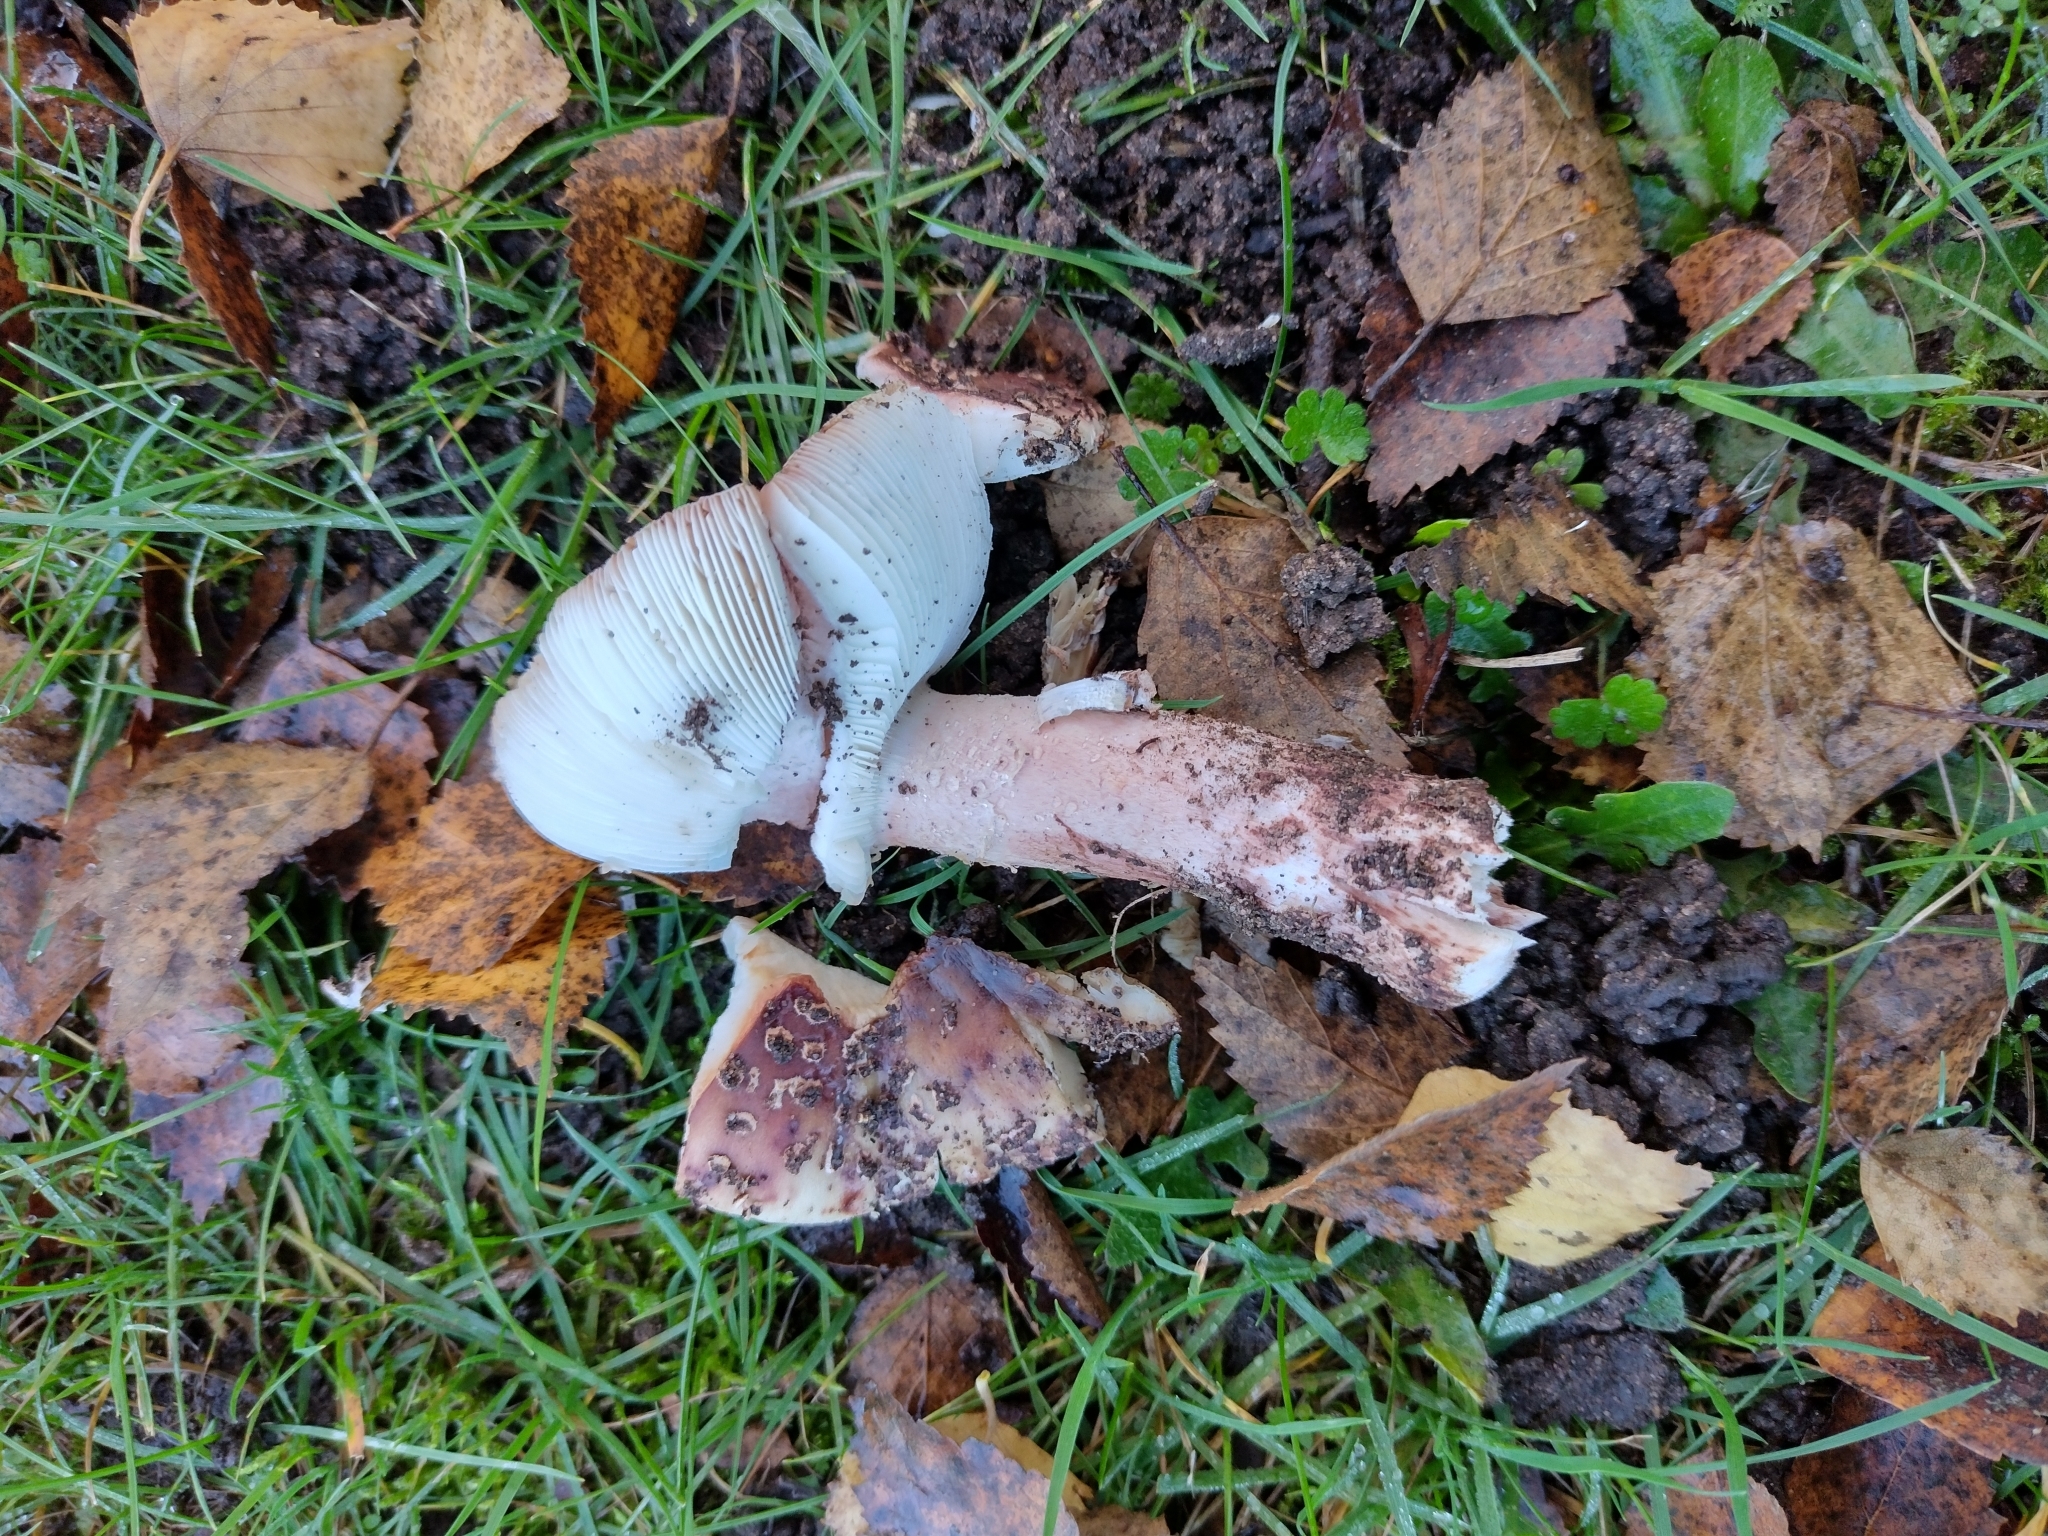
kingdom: Fungi
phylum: Basidiomycota
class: Agaricomycetes
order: Agaricales
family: Amanitaceae
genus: Amanita
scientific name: Amanita rubescens
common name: Blusher
